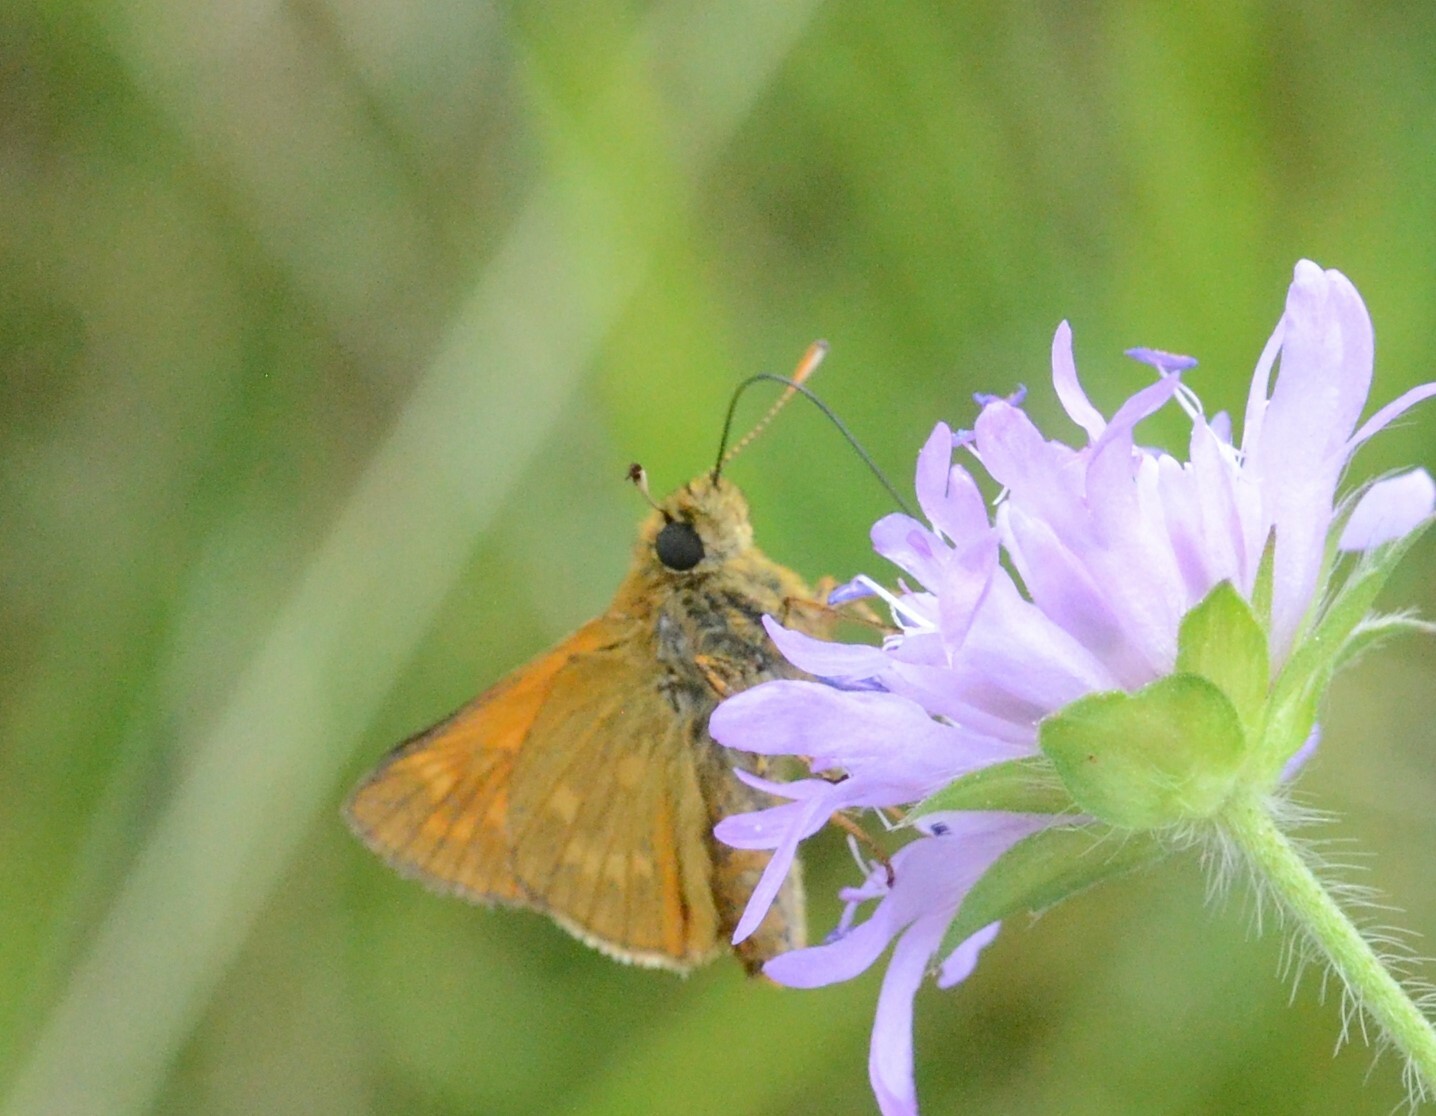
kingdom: Animalia
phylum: Arthropoda
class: Insecta
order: Lepidoptera
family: Hesperiidae
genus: Ochlodes
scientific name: Ochlodes venata
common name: Large skipper
